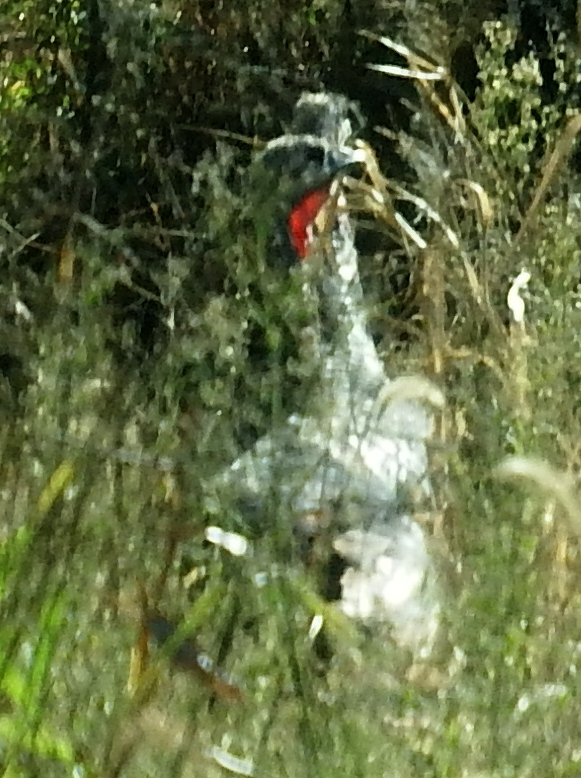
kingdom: Animalia
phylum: Chordata
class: Aves
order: Galliformes
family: Phasianidae
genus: Meleagris
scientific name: Meleagris gallopavo
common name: Wild turkey
